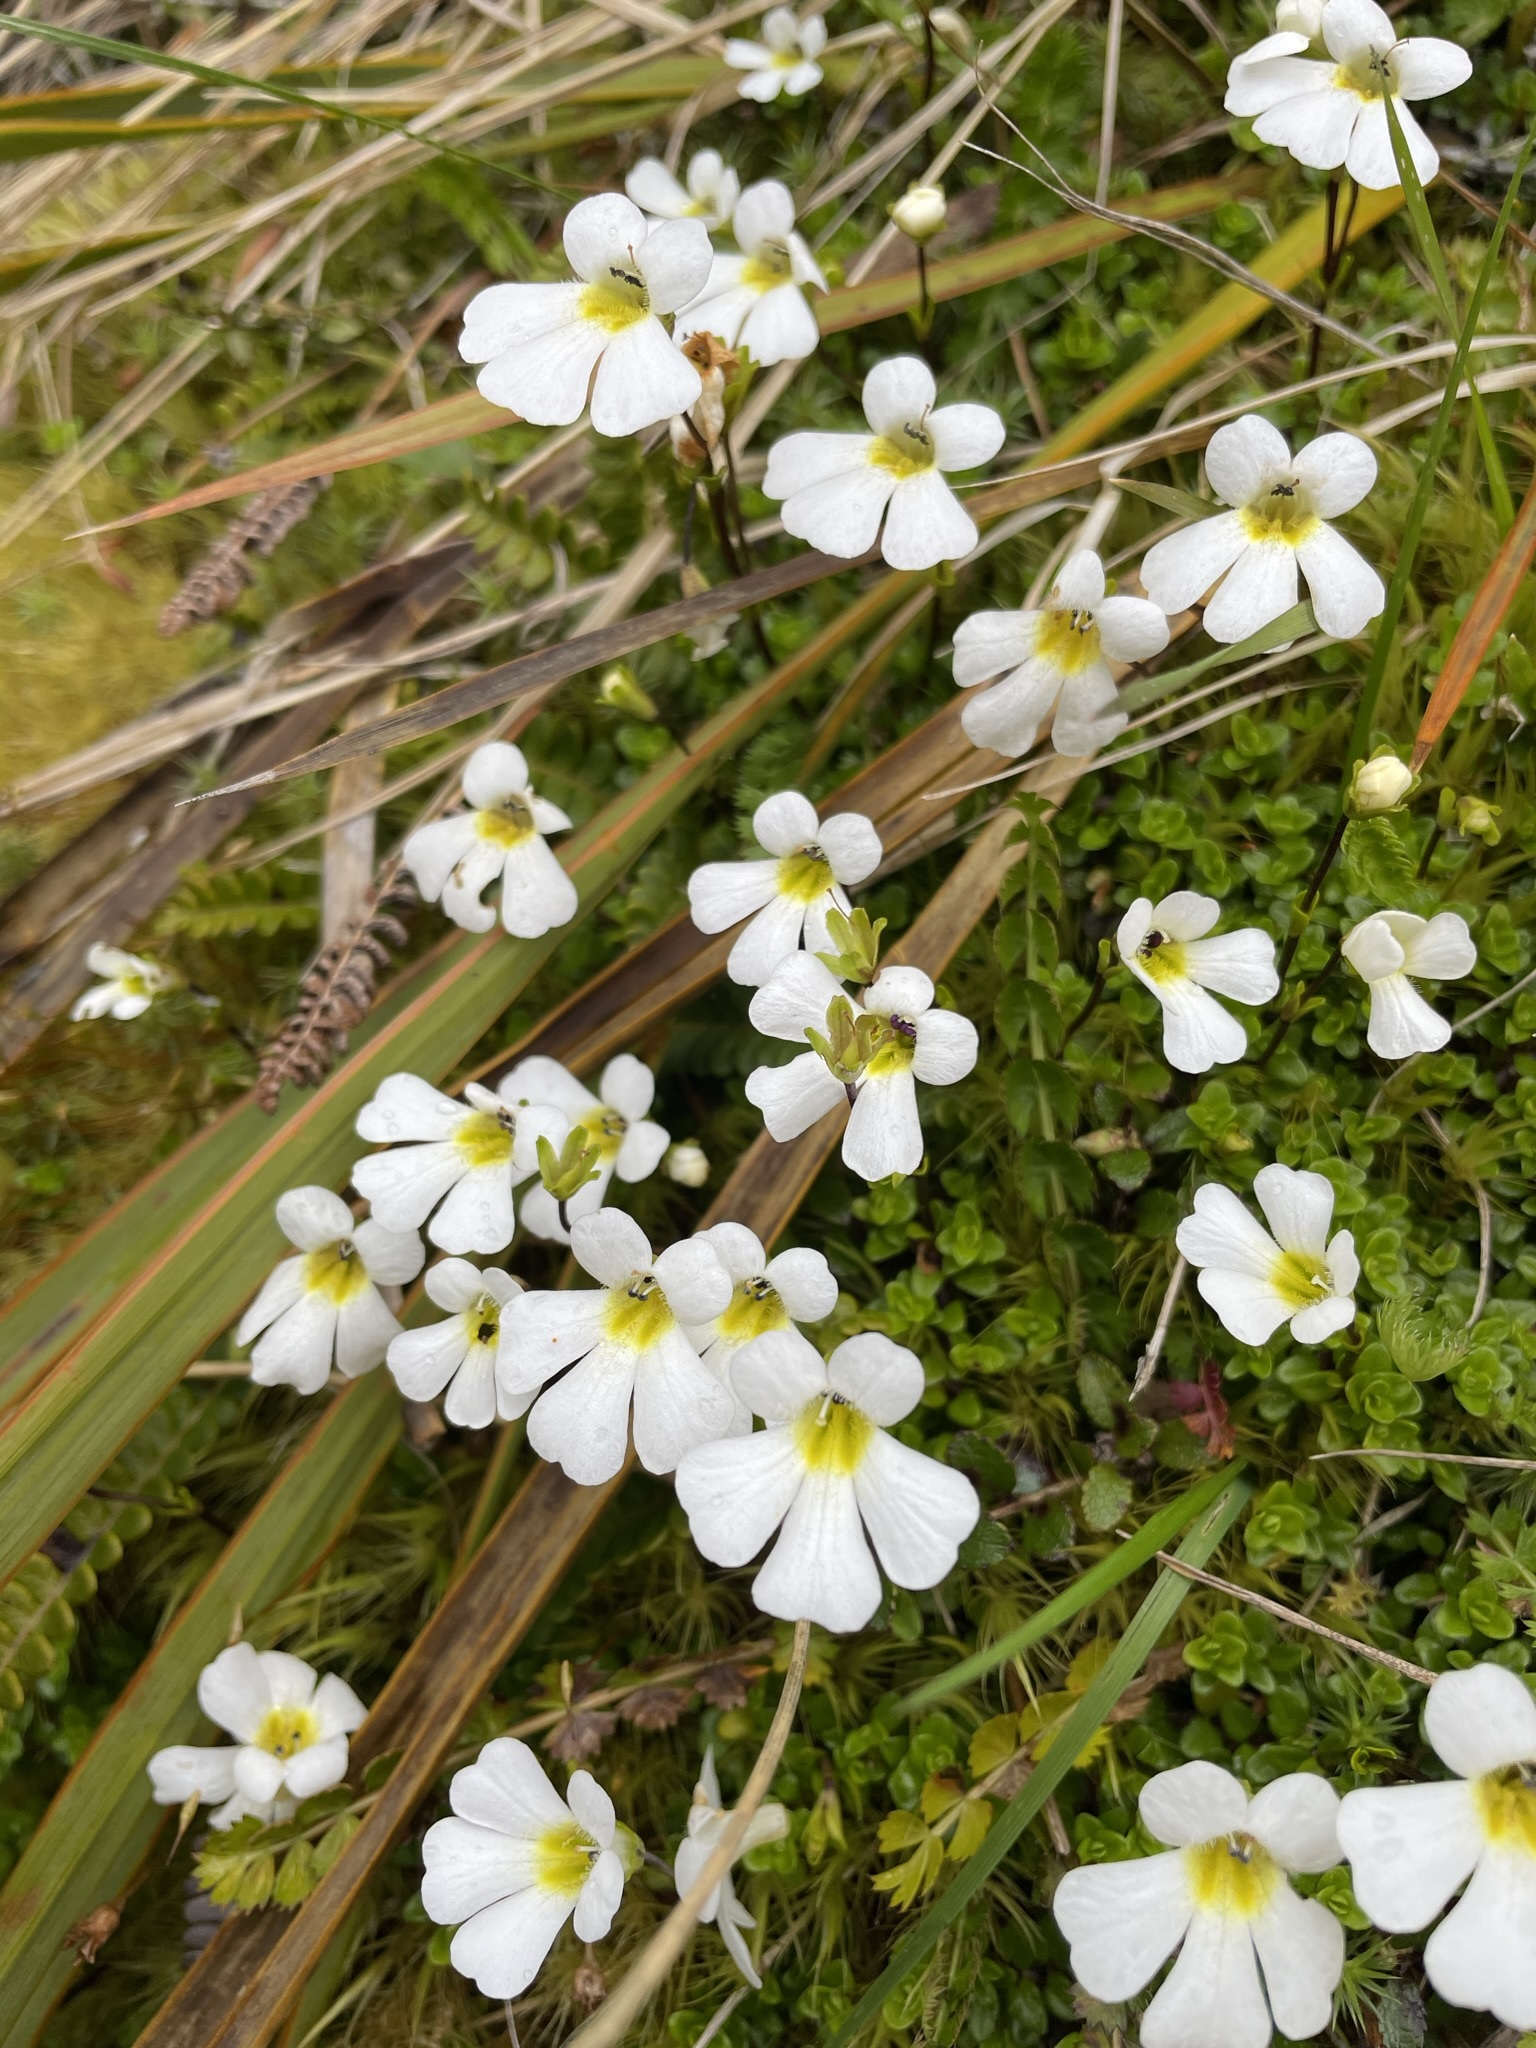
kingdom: Plantae
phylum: Tracheophyta
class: Magnoliopsida
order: Lamiales
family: Plantaginaceae
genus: Ourisia
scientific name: Ourisia caespitosa
